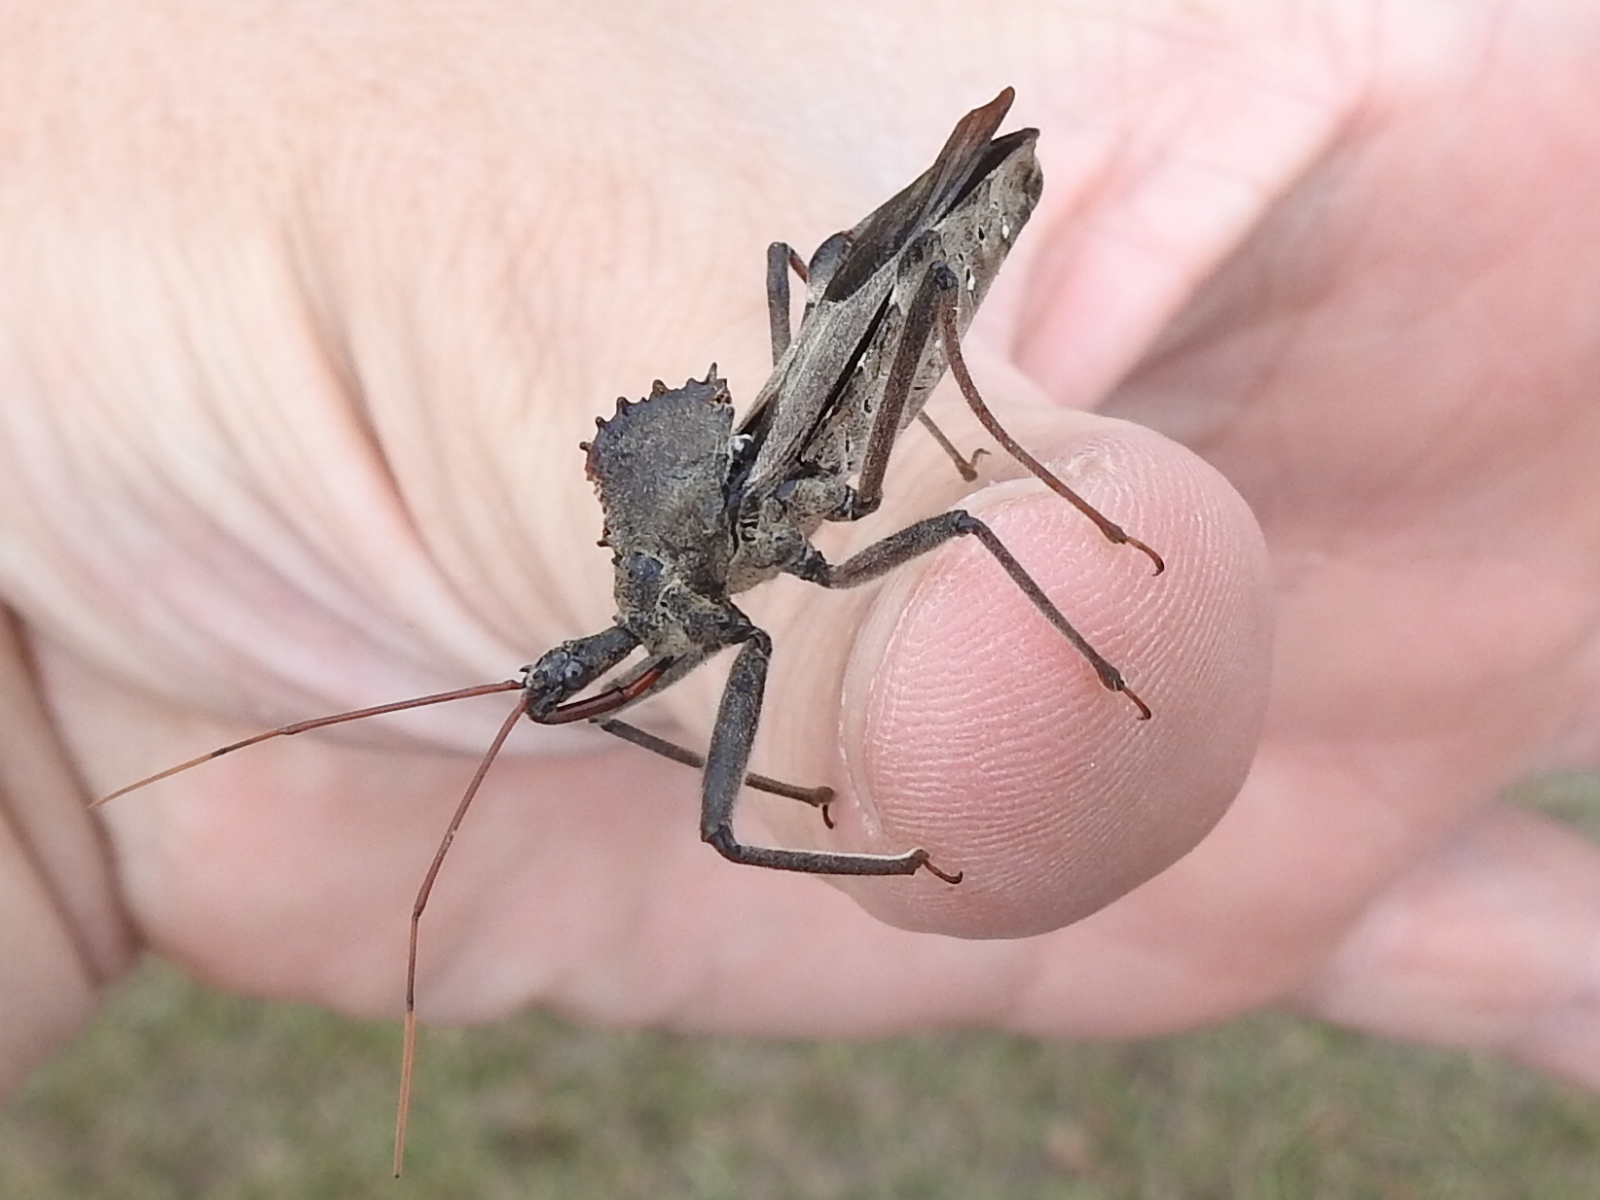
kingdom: Animalia
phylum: Arthropoda
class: Insecta
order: Hemiptera
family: Reduviidae
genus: Arilus
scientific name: Arilus cristatus
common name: North american wheel bug
